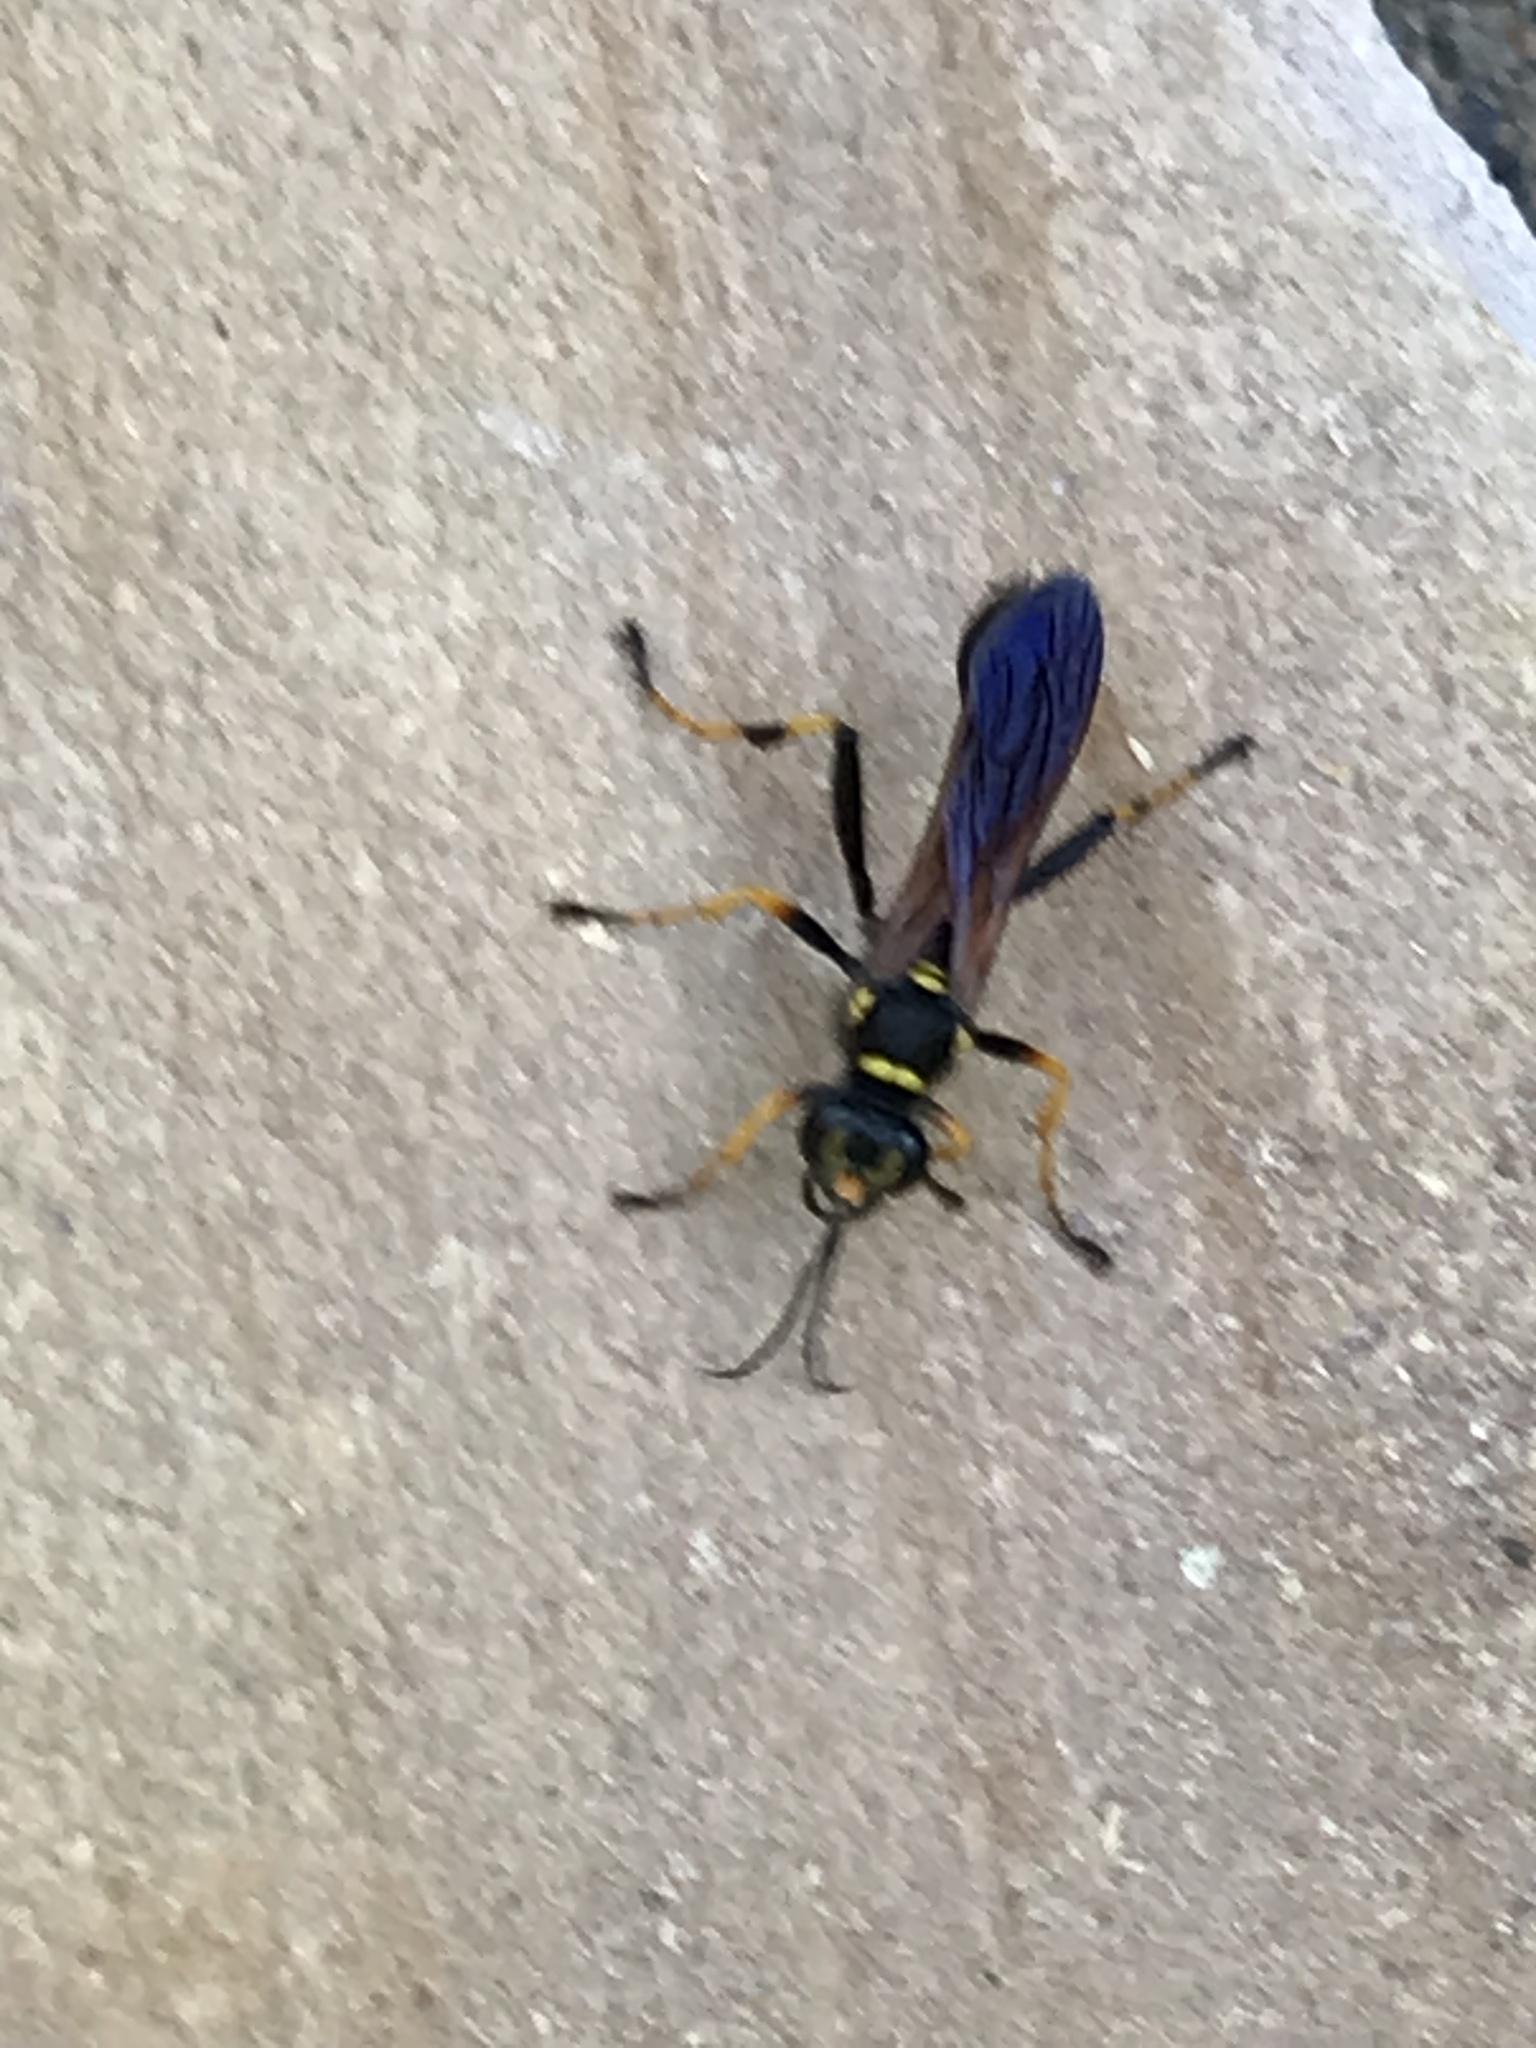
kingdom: Animalia
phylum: Arthropoda
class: Insecta
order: Hymenoptera
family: Sphecidae
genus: Sceliphron
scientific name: Sceliphron caementarium
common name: Mud dauber
